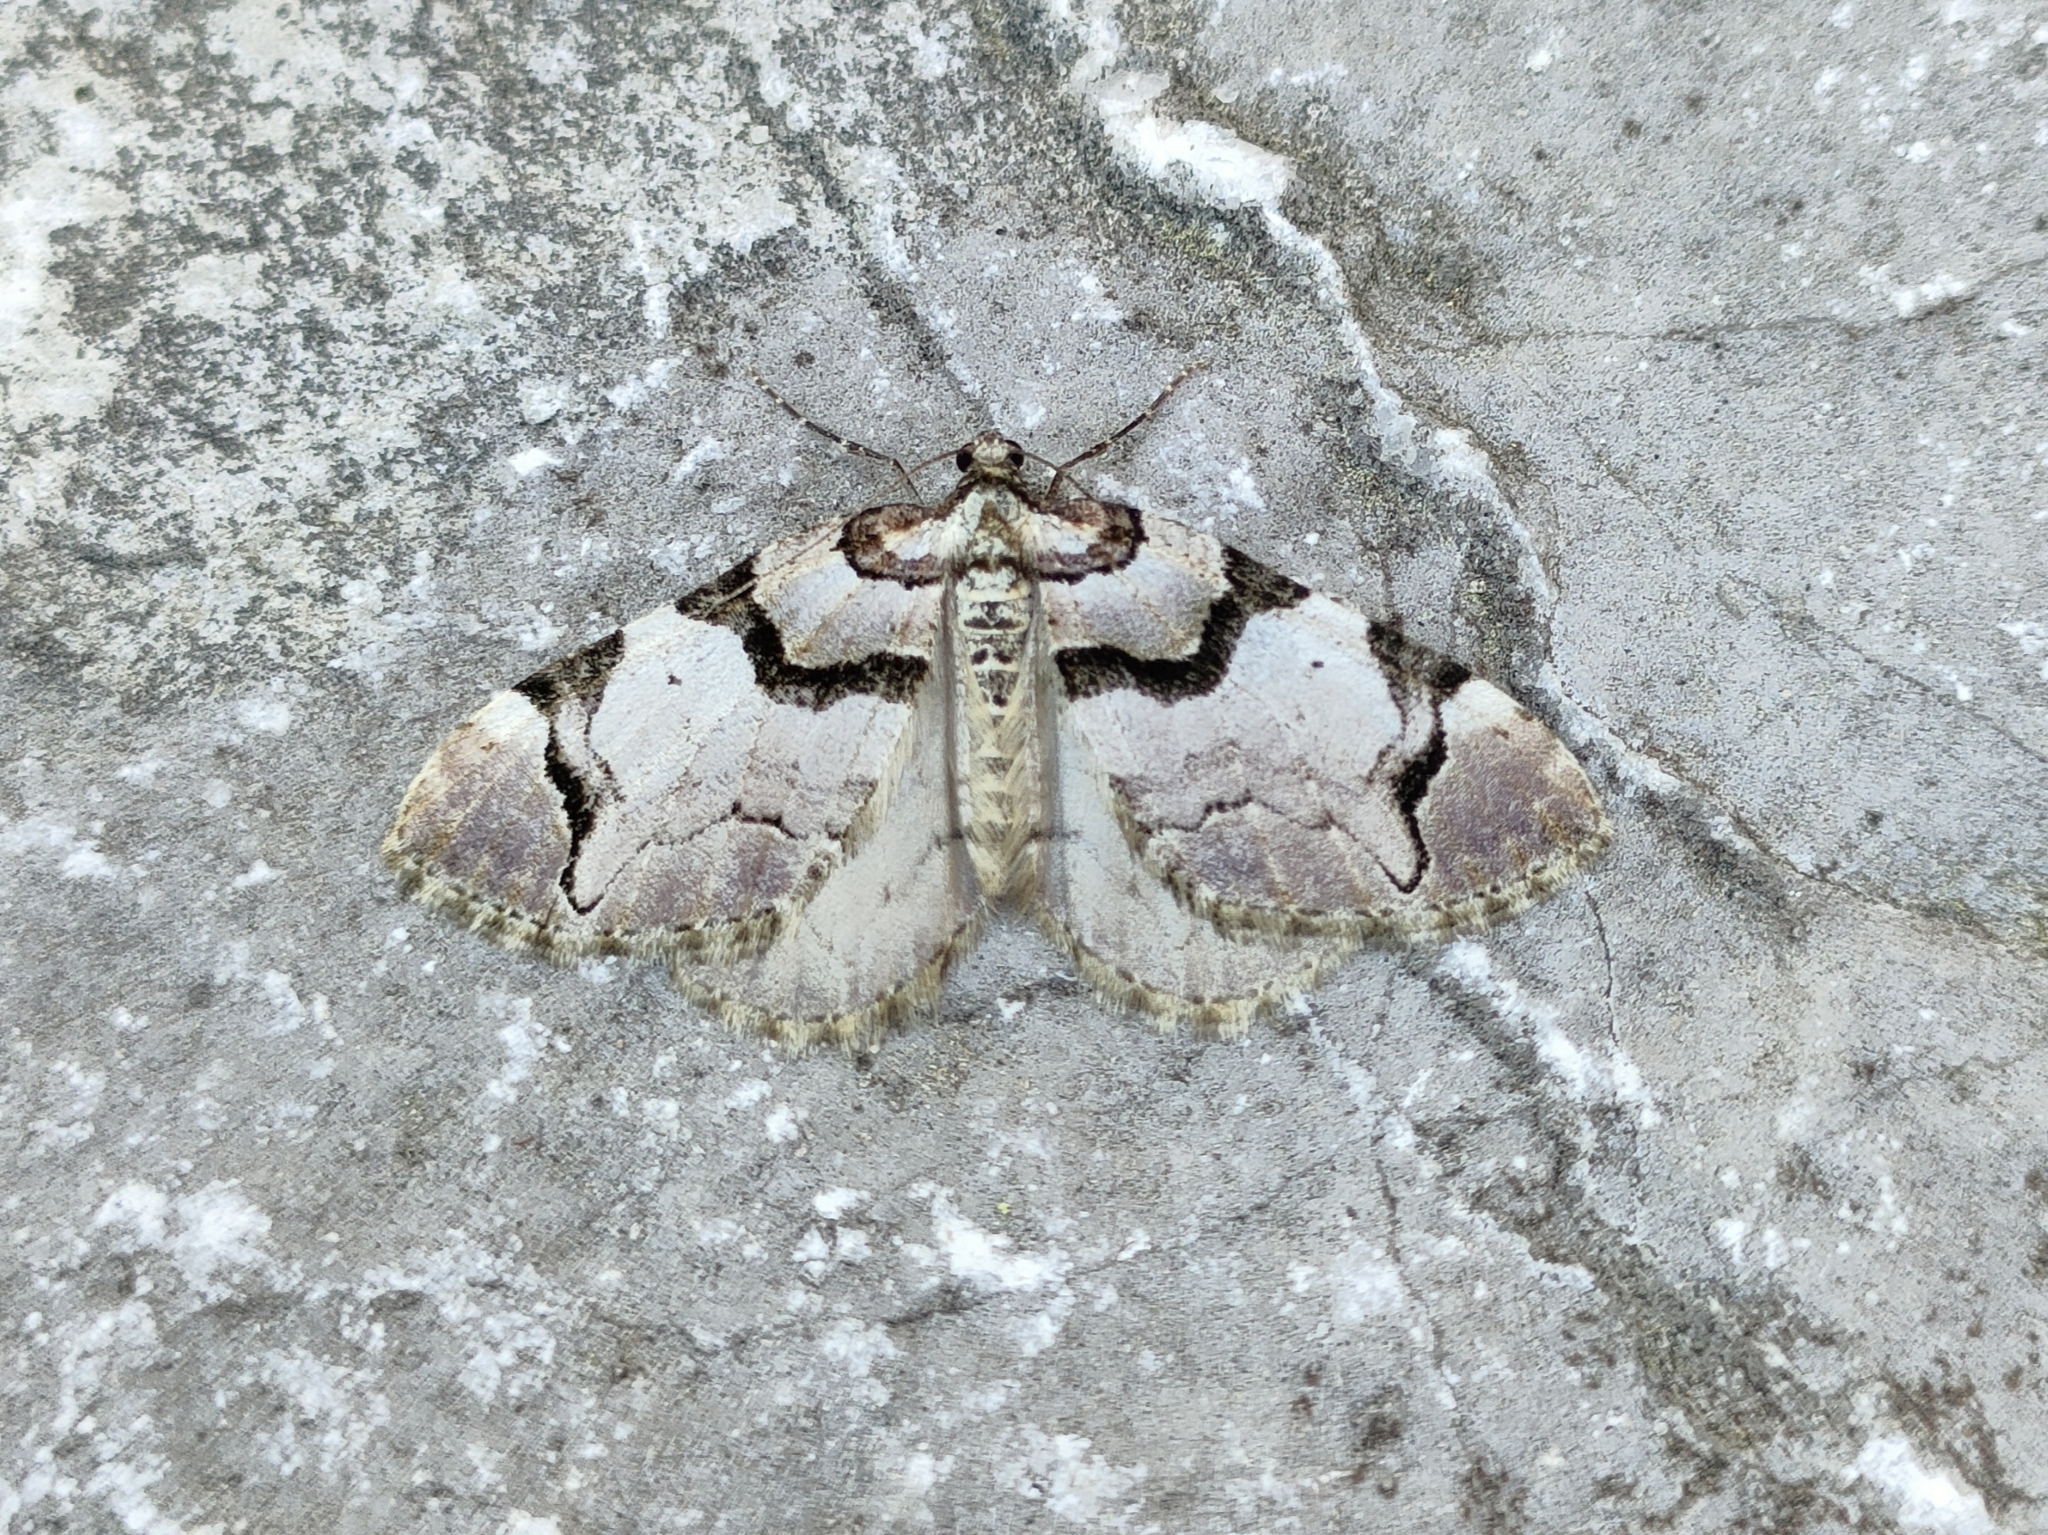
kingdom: Animalia
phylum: Arthropoda
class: Insecta
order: Lepidoptera
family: Geometridae
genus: Anticlea
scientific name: Anticlea derivata
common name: Streamer
